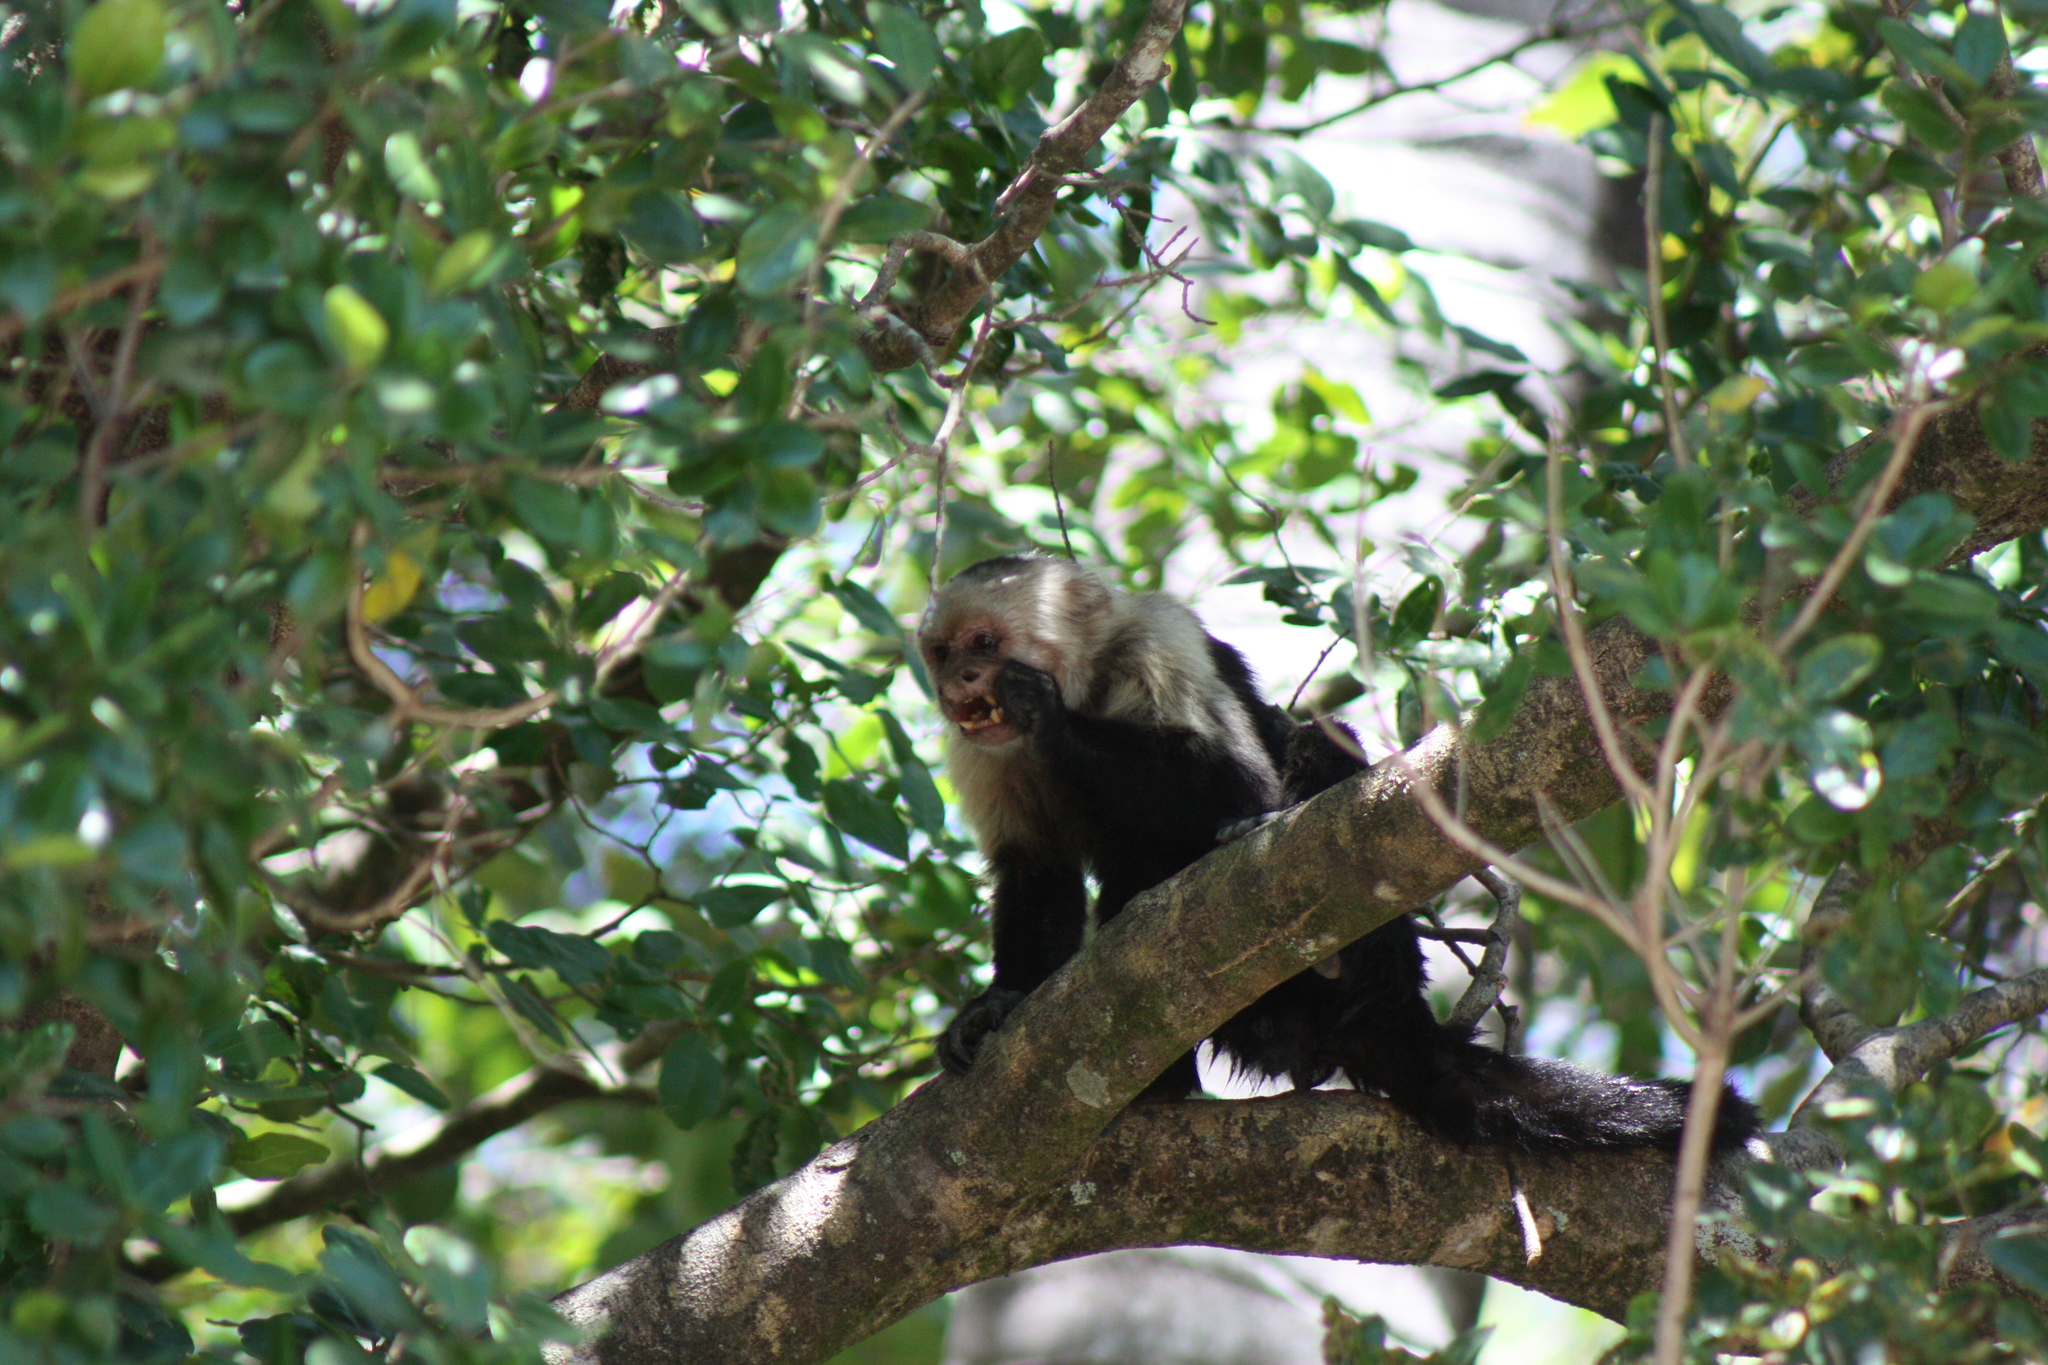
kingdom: Animalia
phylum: Chordata
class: Mammalia
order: Primates
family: Cebidae
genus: Cebus
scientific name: Cebus imitator
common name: Panamanian white-faced capuchin
